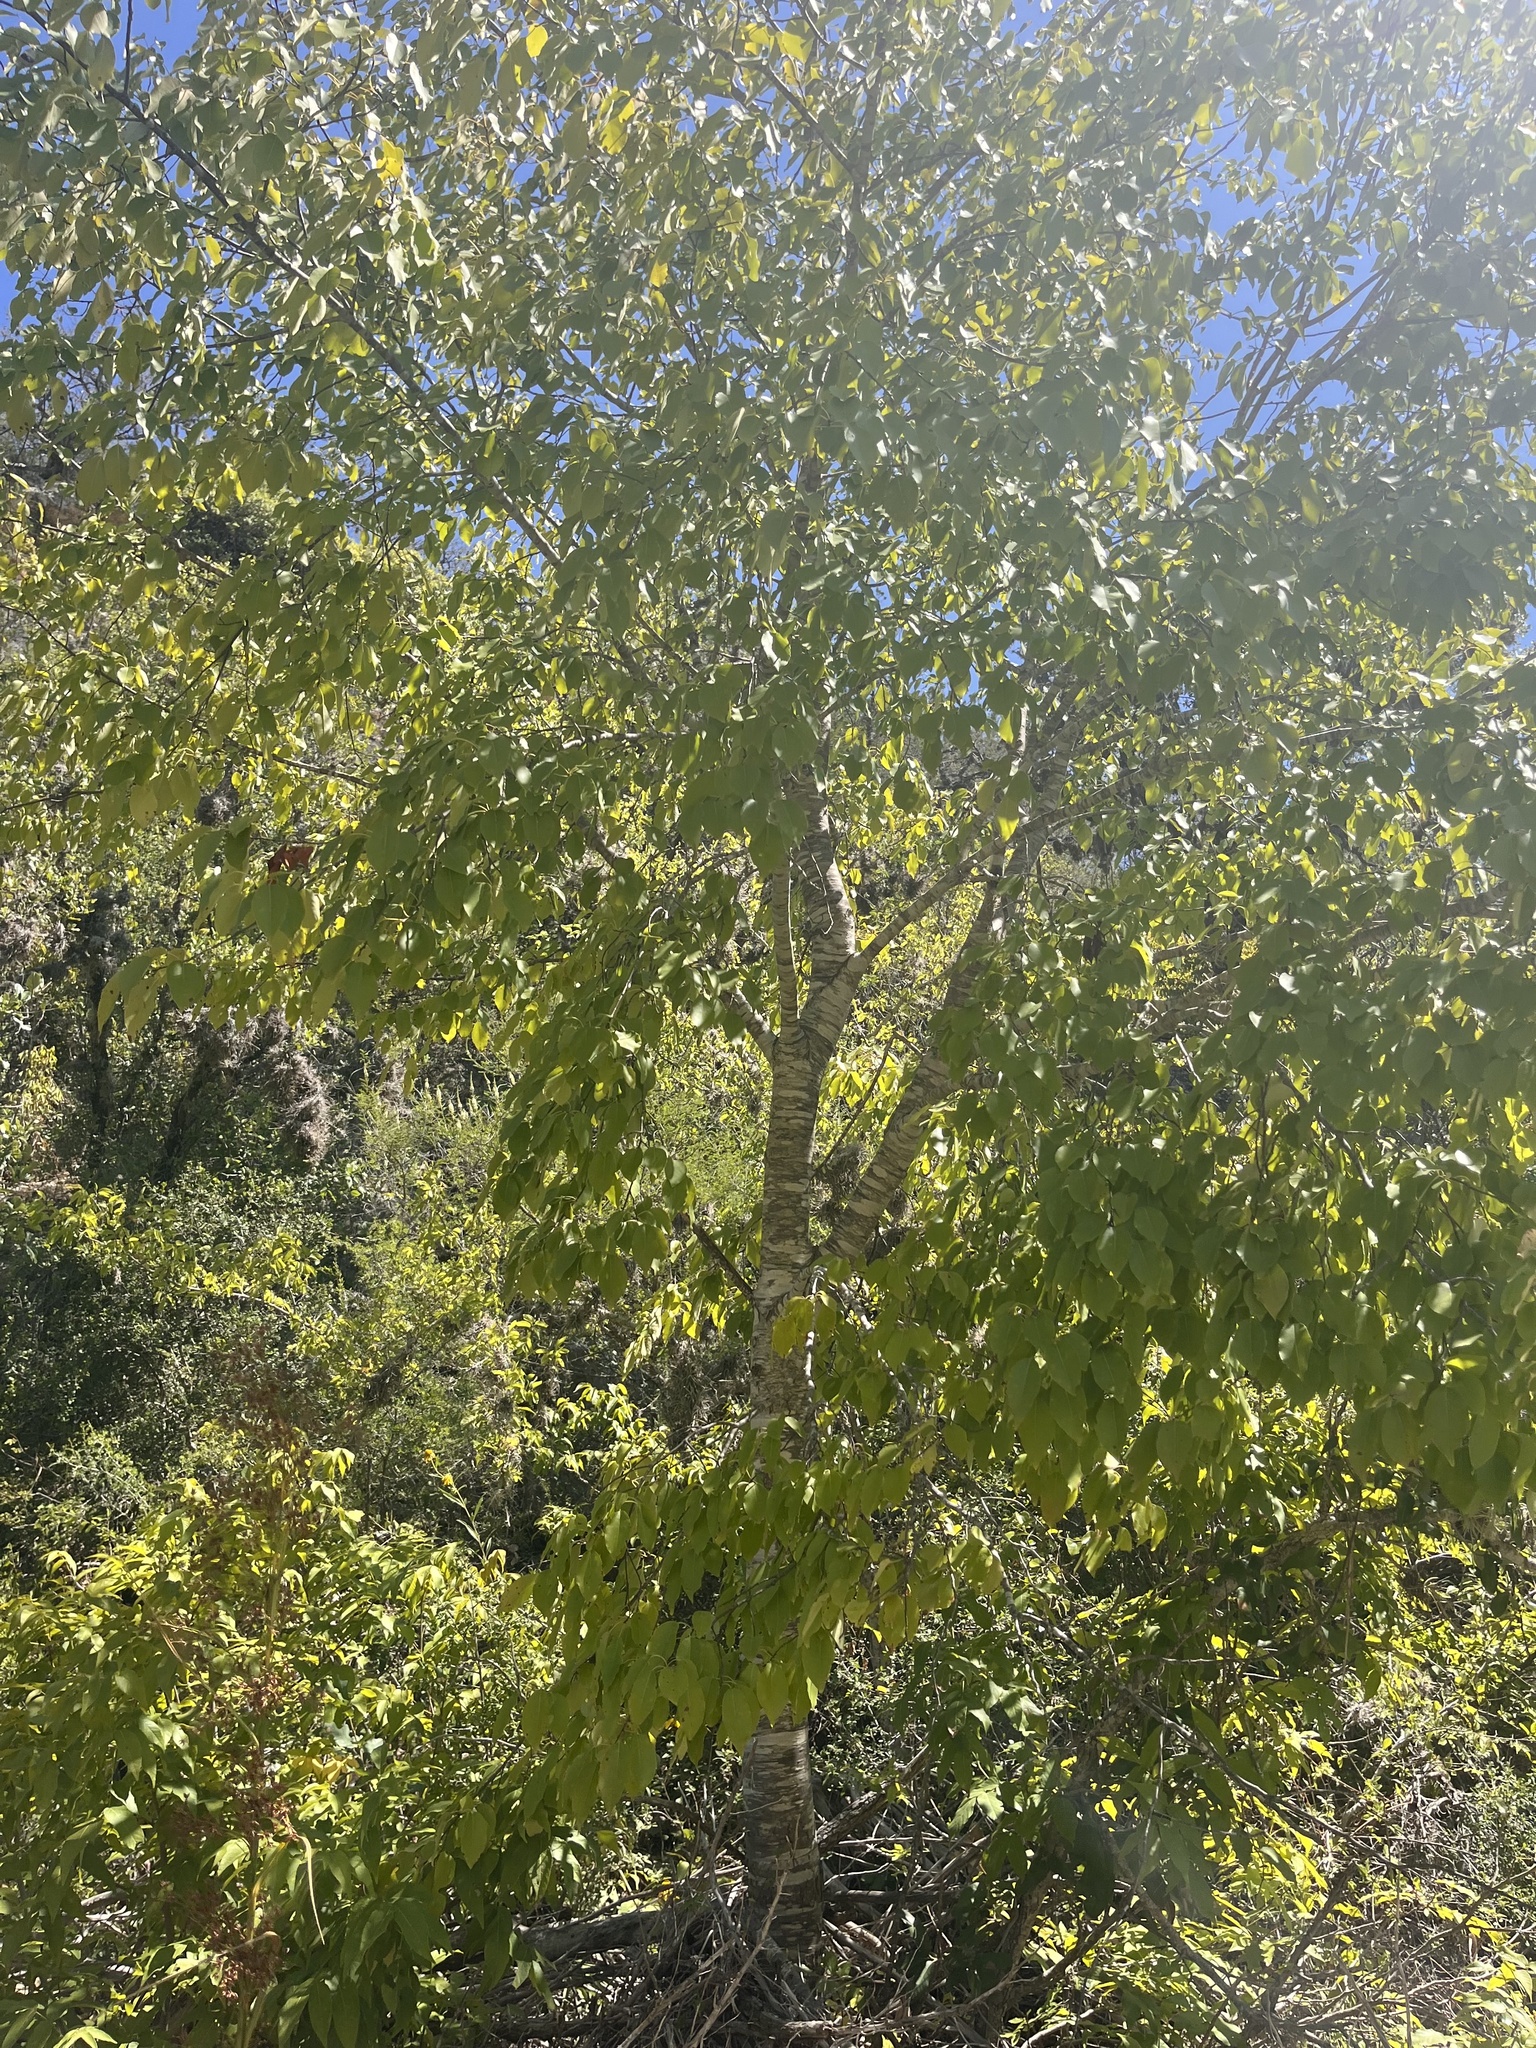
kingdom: Plantae
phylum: Tracheophyta
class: Magnoliopsida
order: Rosales
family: Rosaceae
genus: Prunus
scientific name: Prunus serotina
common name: Black cherry
